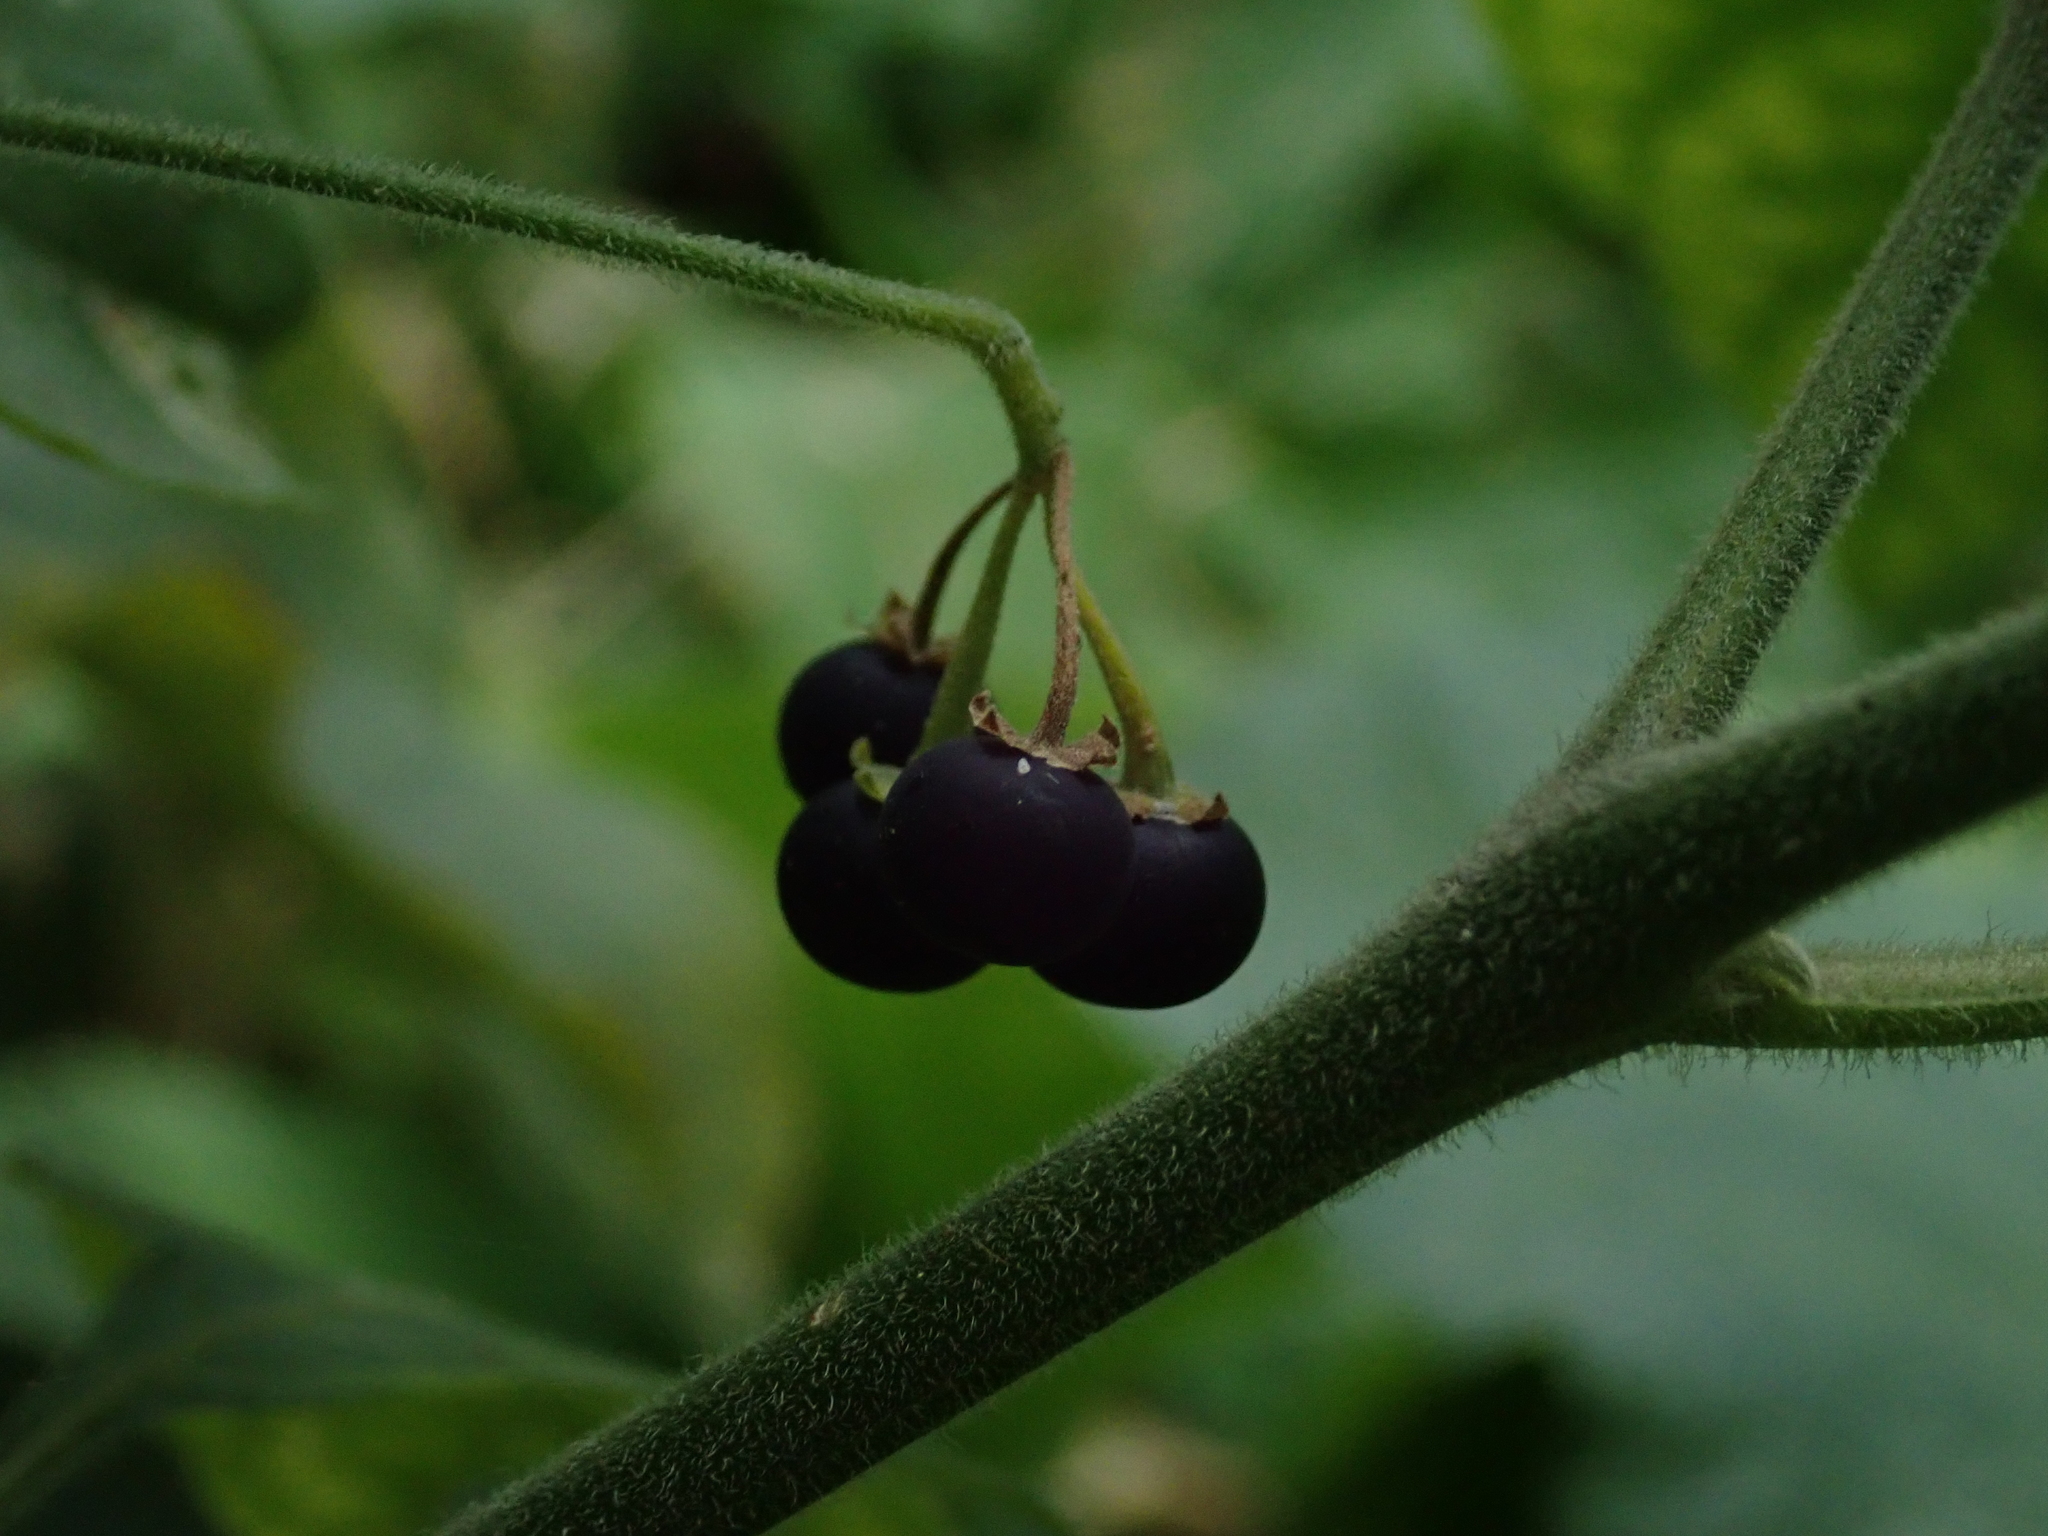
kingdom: Plantae
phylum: Tracheophyta
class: Magnoliopsida
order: Solanales
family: Solanaceae
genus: Solanum
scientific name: Solanum chenopodioides
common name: Tall nightshade
